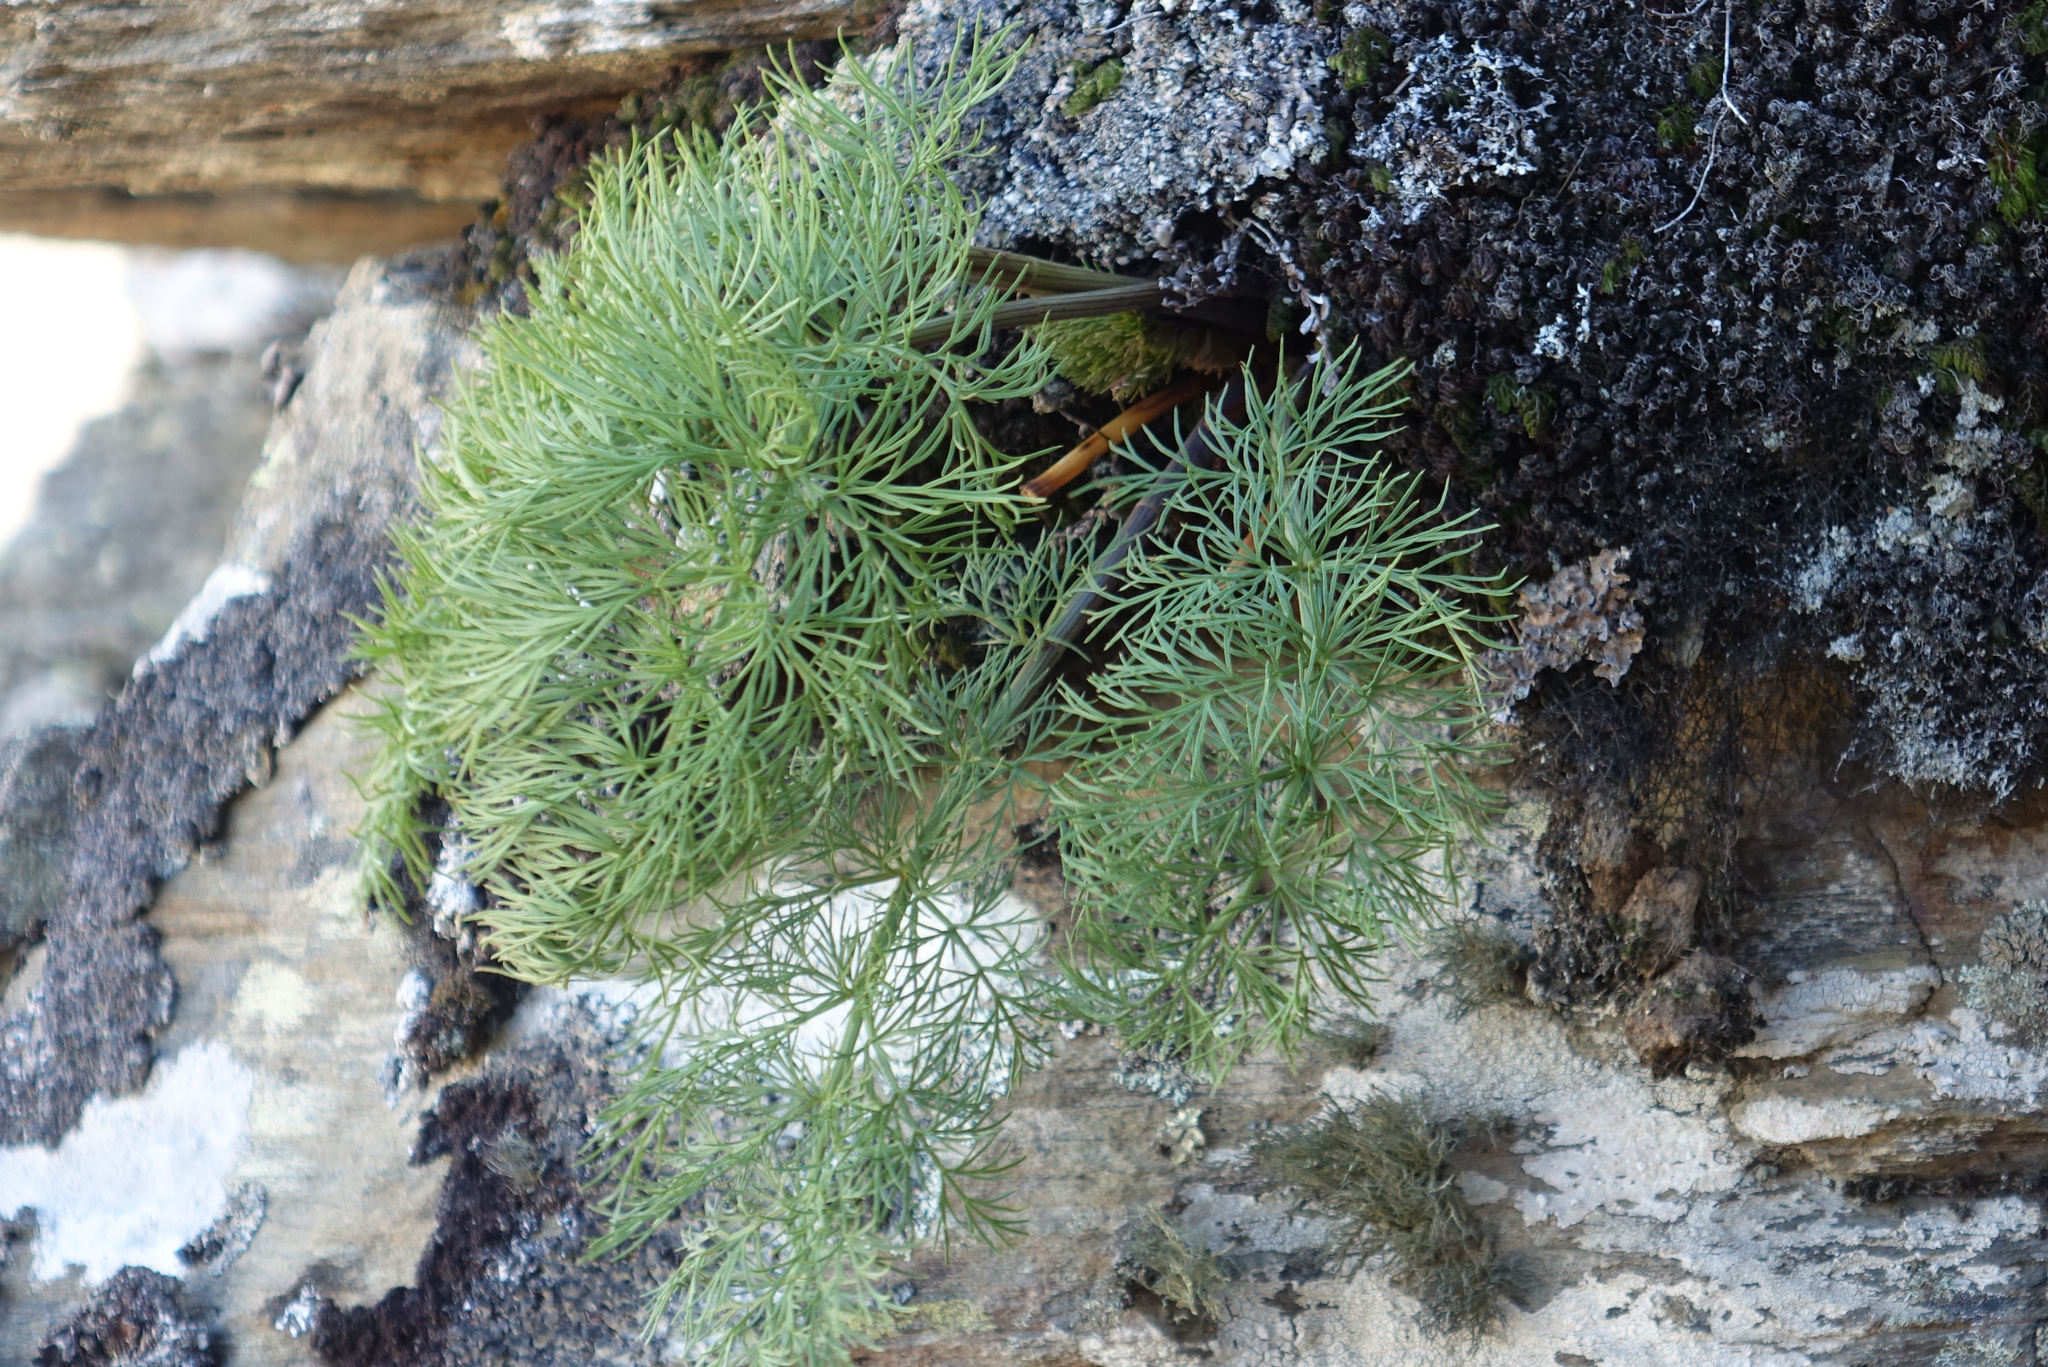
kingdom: Plantae
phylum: Tracheophyta
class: Magnoliopsida
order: Apiales
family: Apiaceae
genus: Anisotome
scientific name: Anisotome cauticola
